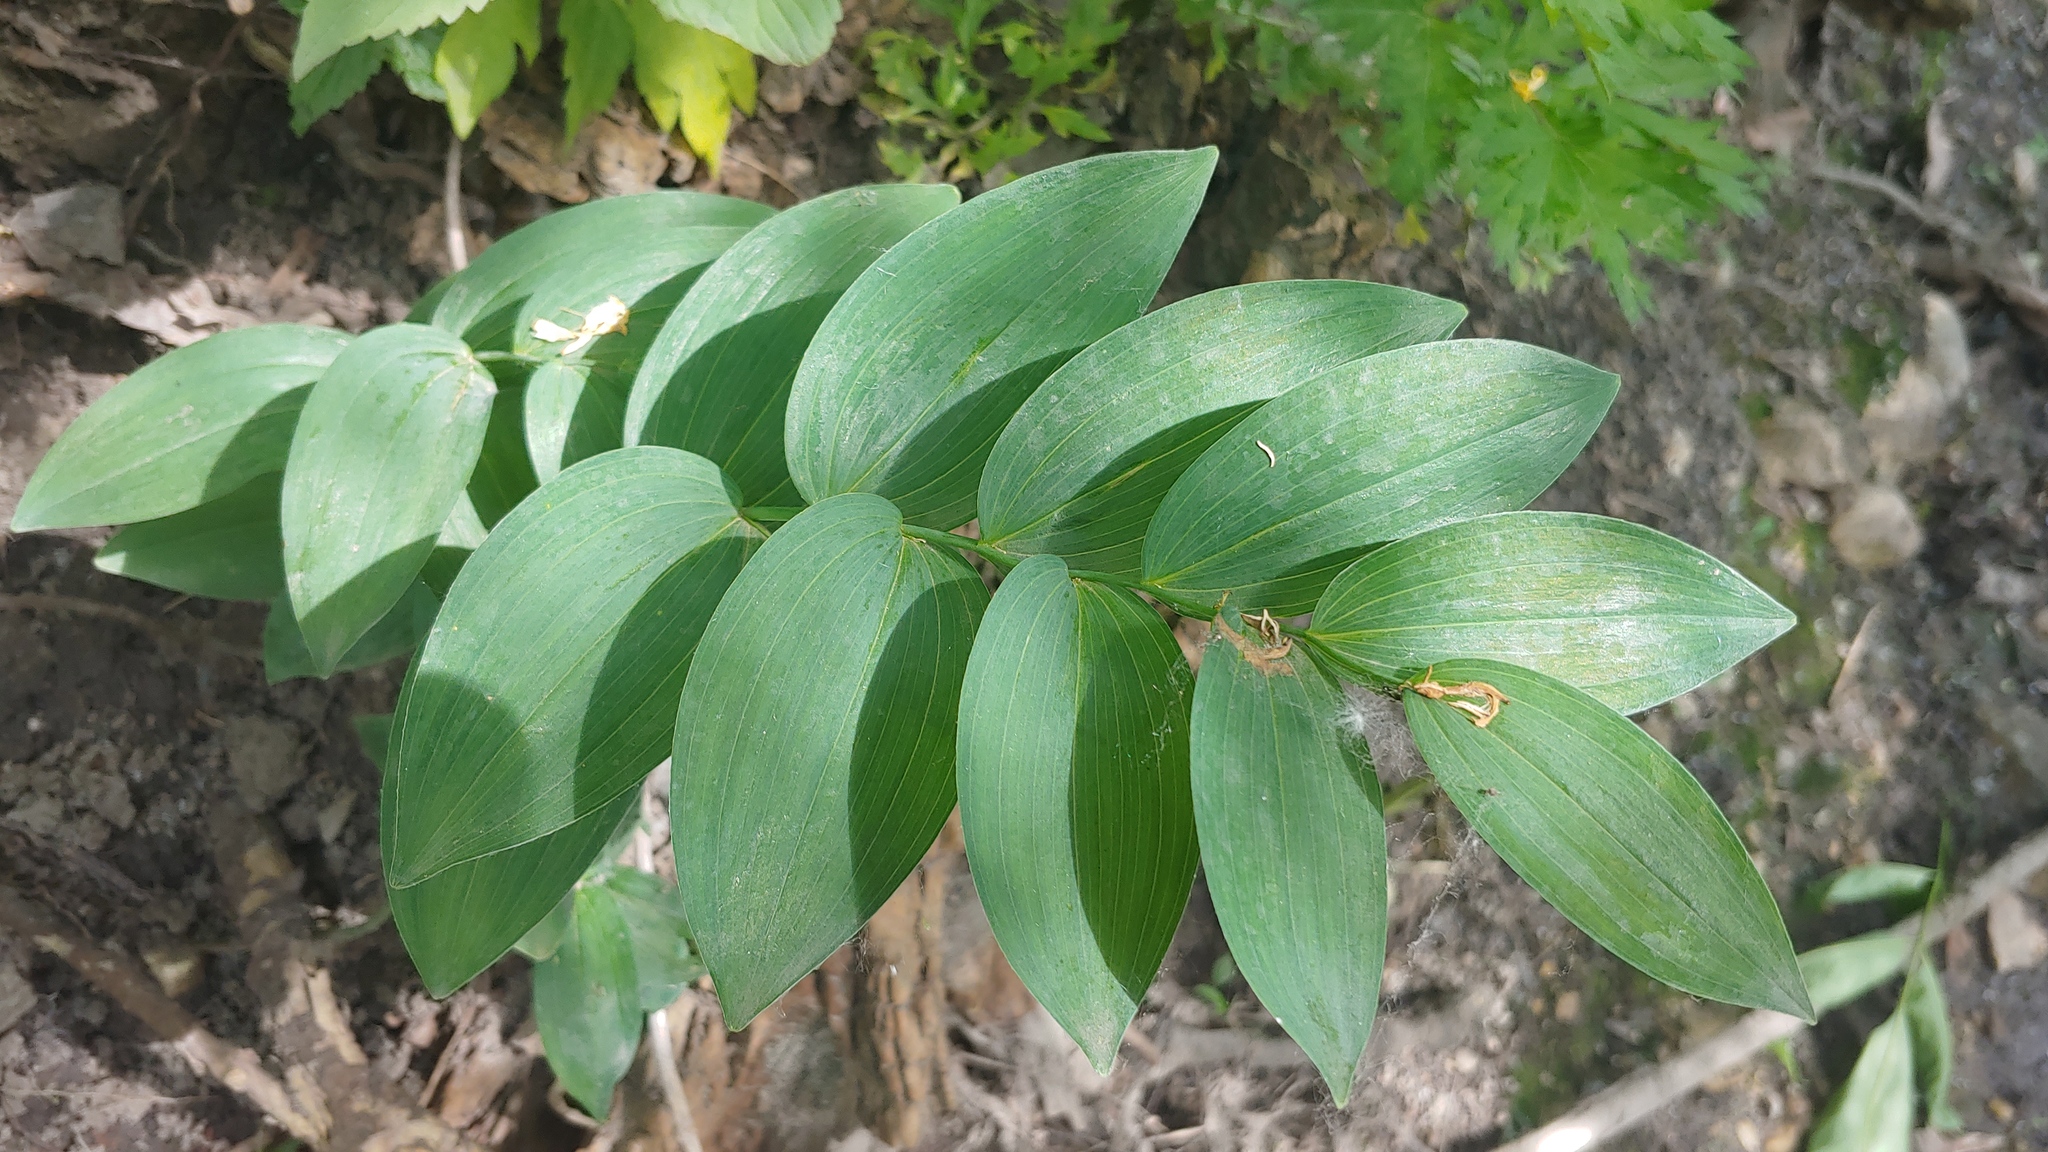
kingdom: Plantae
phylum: Tracheophyta
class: Liliopsida
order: Asparagales
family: Asparagaceae
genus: Polygonatum
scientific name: Polygonatum biflorum
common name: American solomon's-seal
